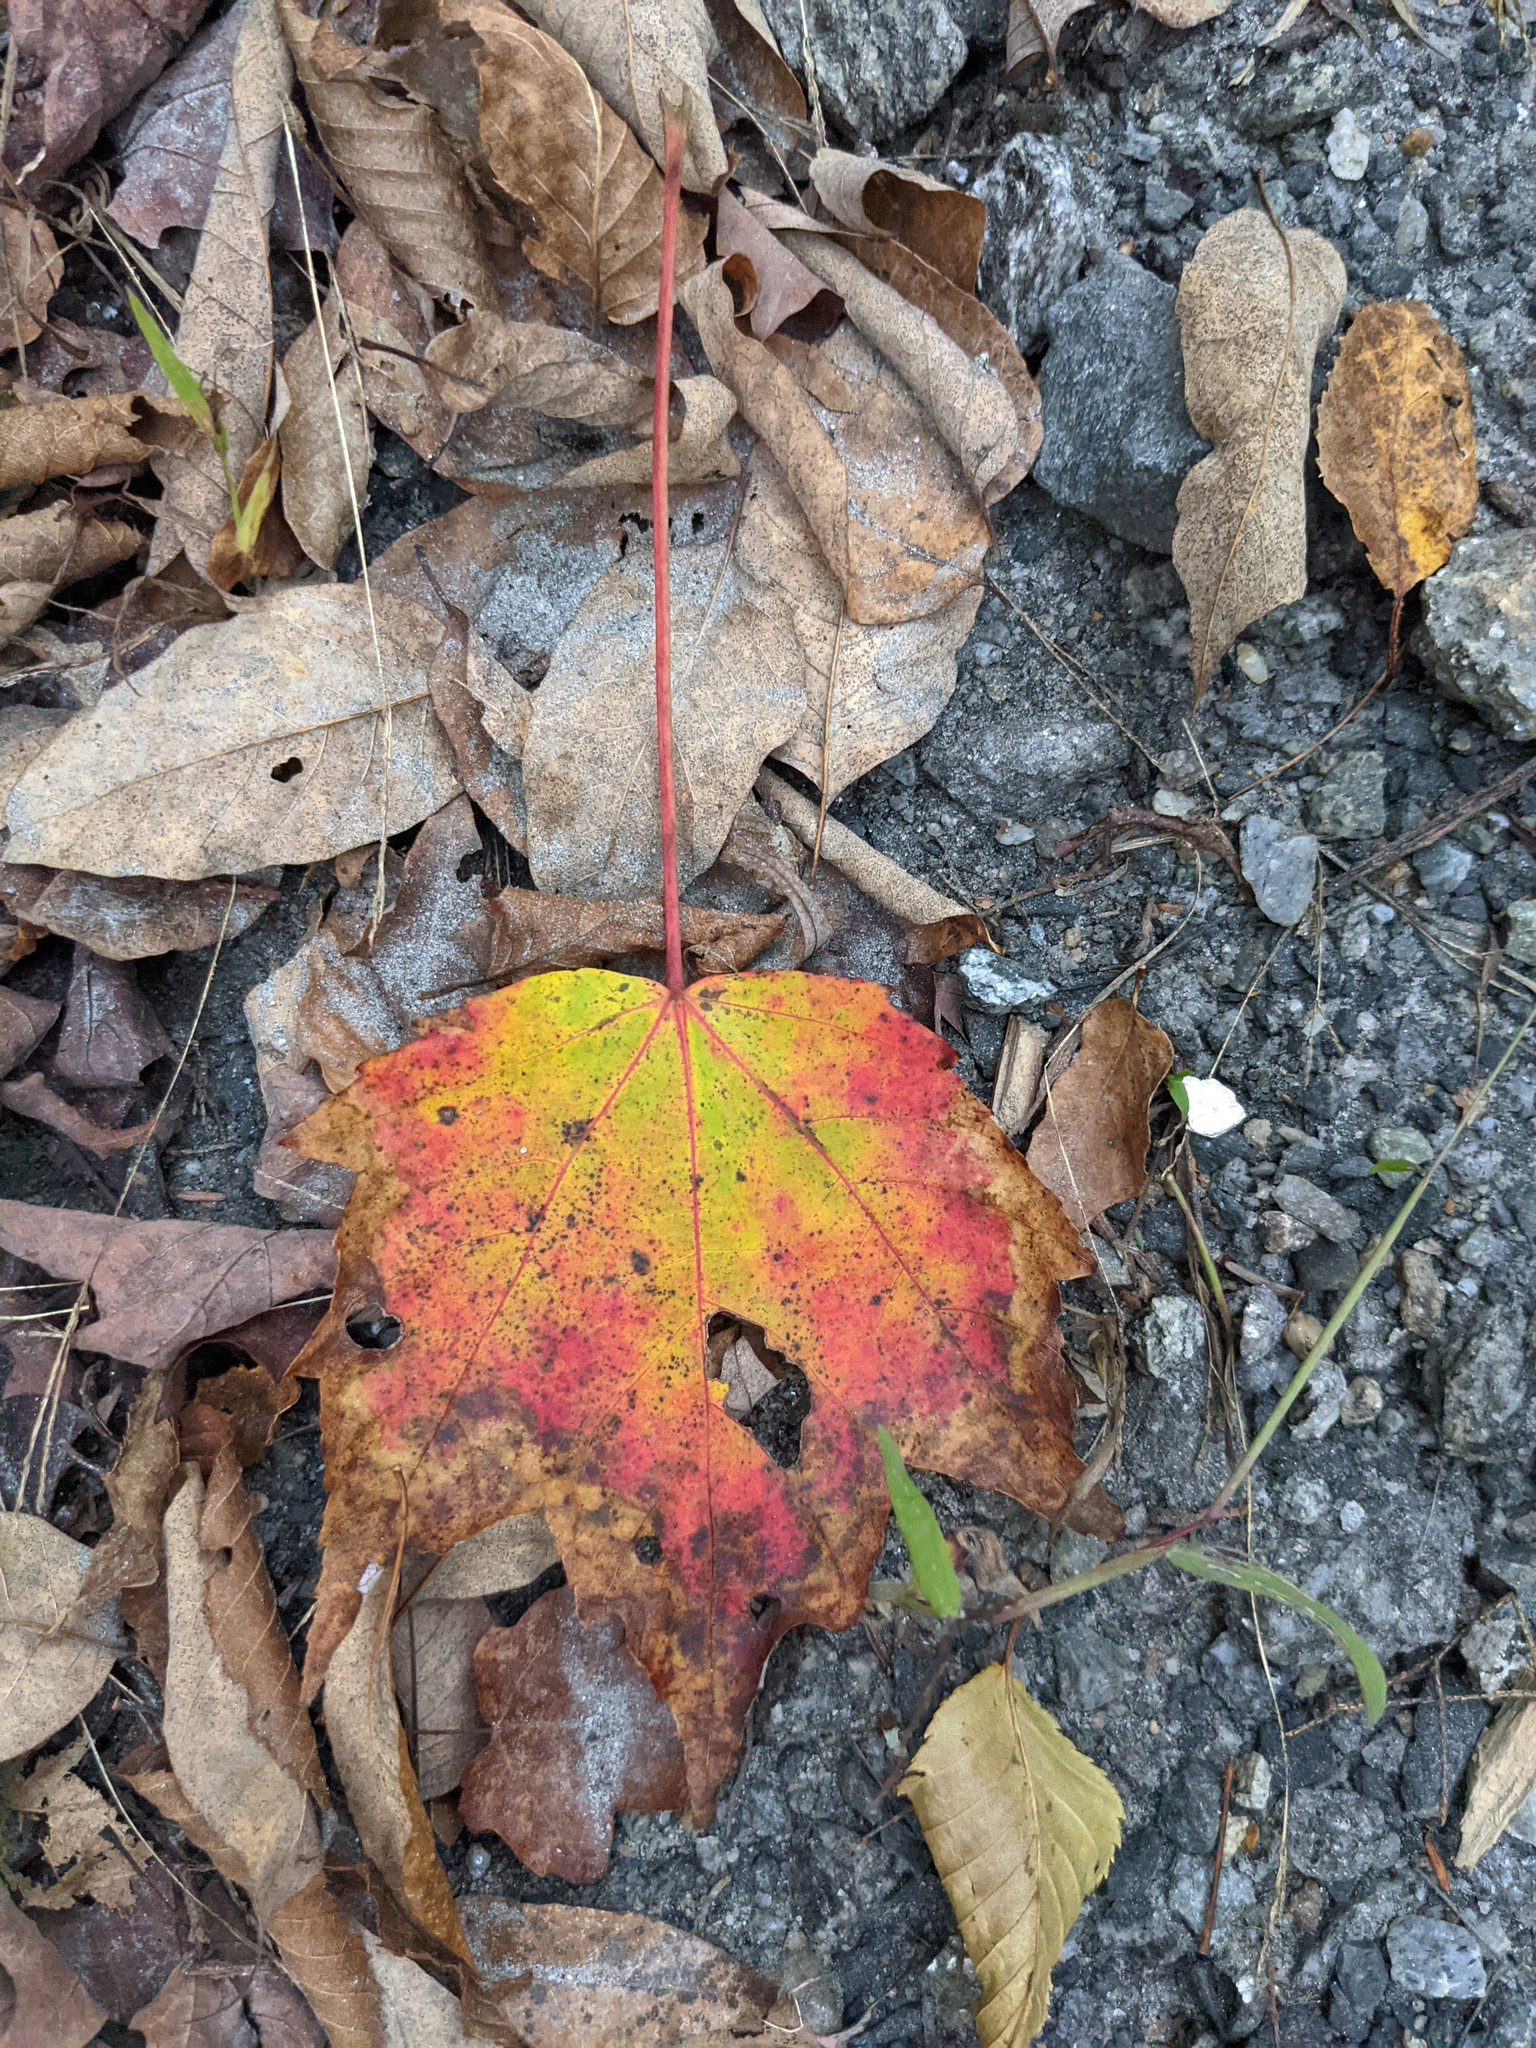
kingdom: Plantae
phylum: Tracheophyta
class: Magnoliopsida
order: Sapindales
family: Sapindaceae
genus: Acer
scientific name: Acer rubrum
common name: Red maple
